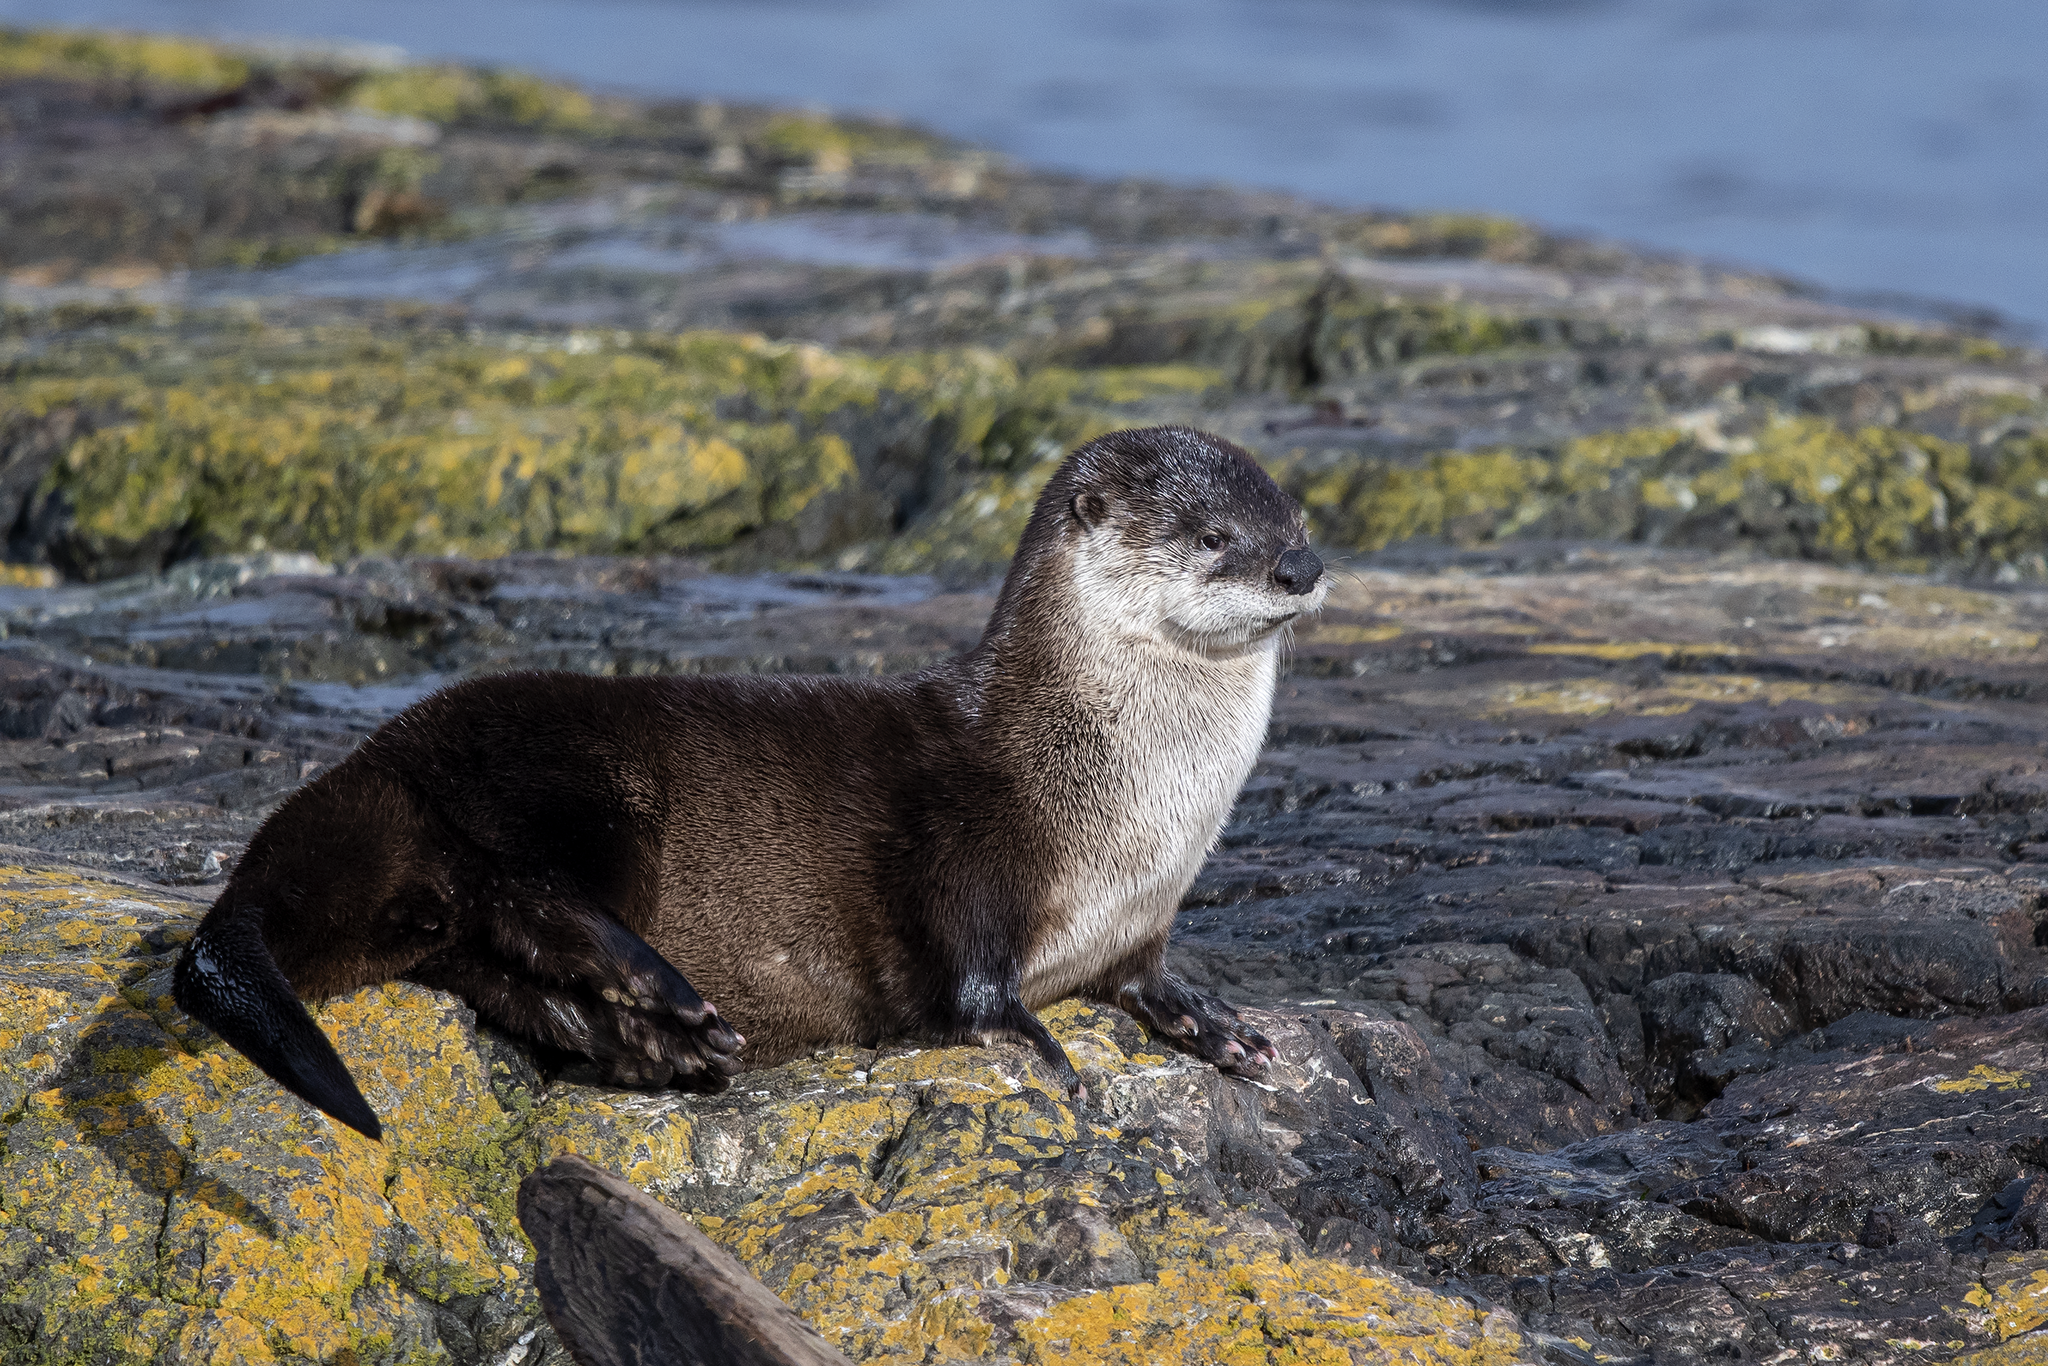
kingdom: Animalia
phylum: Chordata
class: Mammalia
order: Carnivora
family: Mustelidae
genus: Lontra
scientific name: Lontra canadensis
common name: North american river otter
